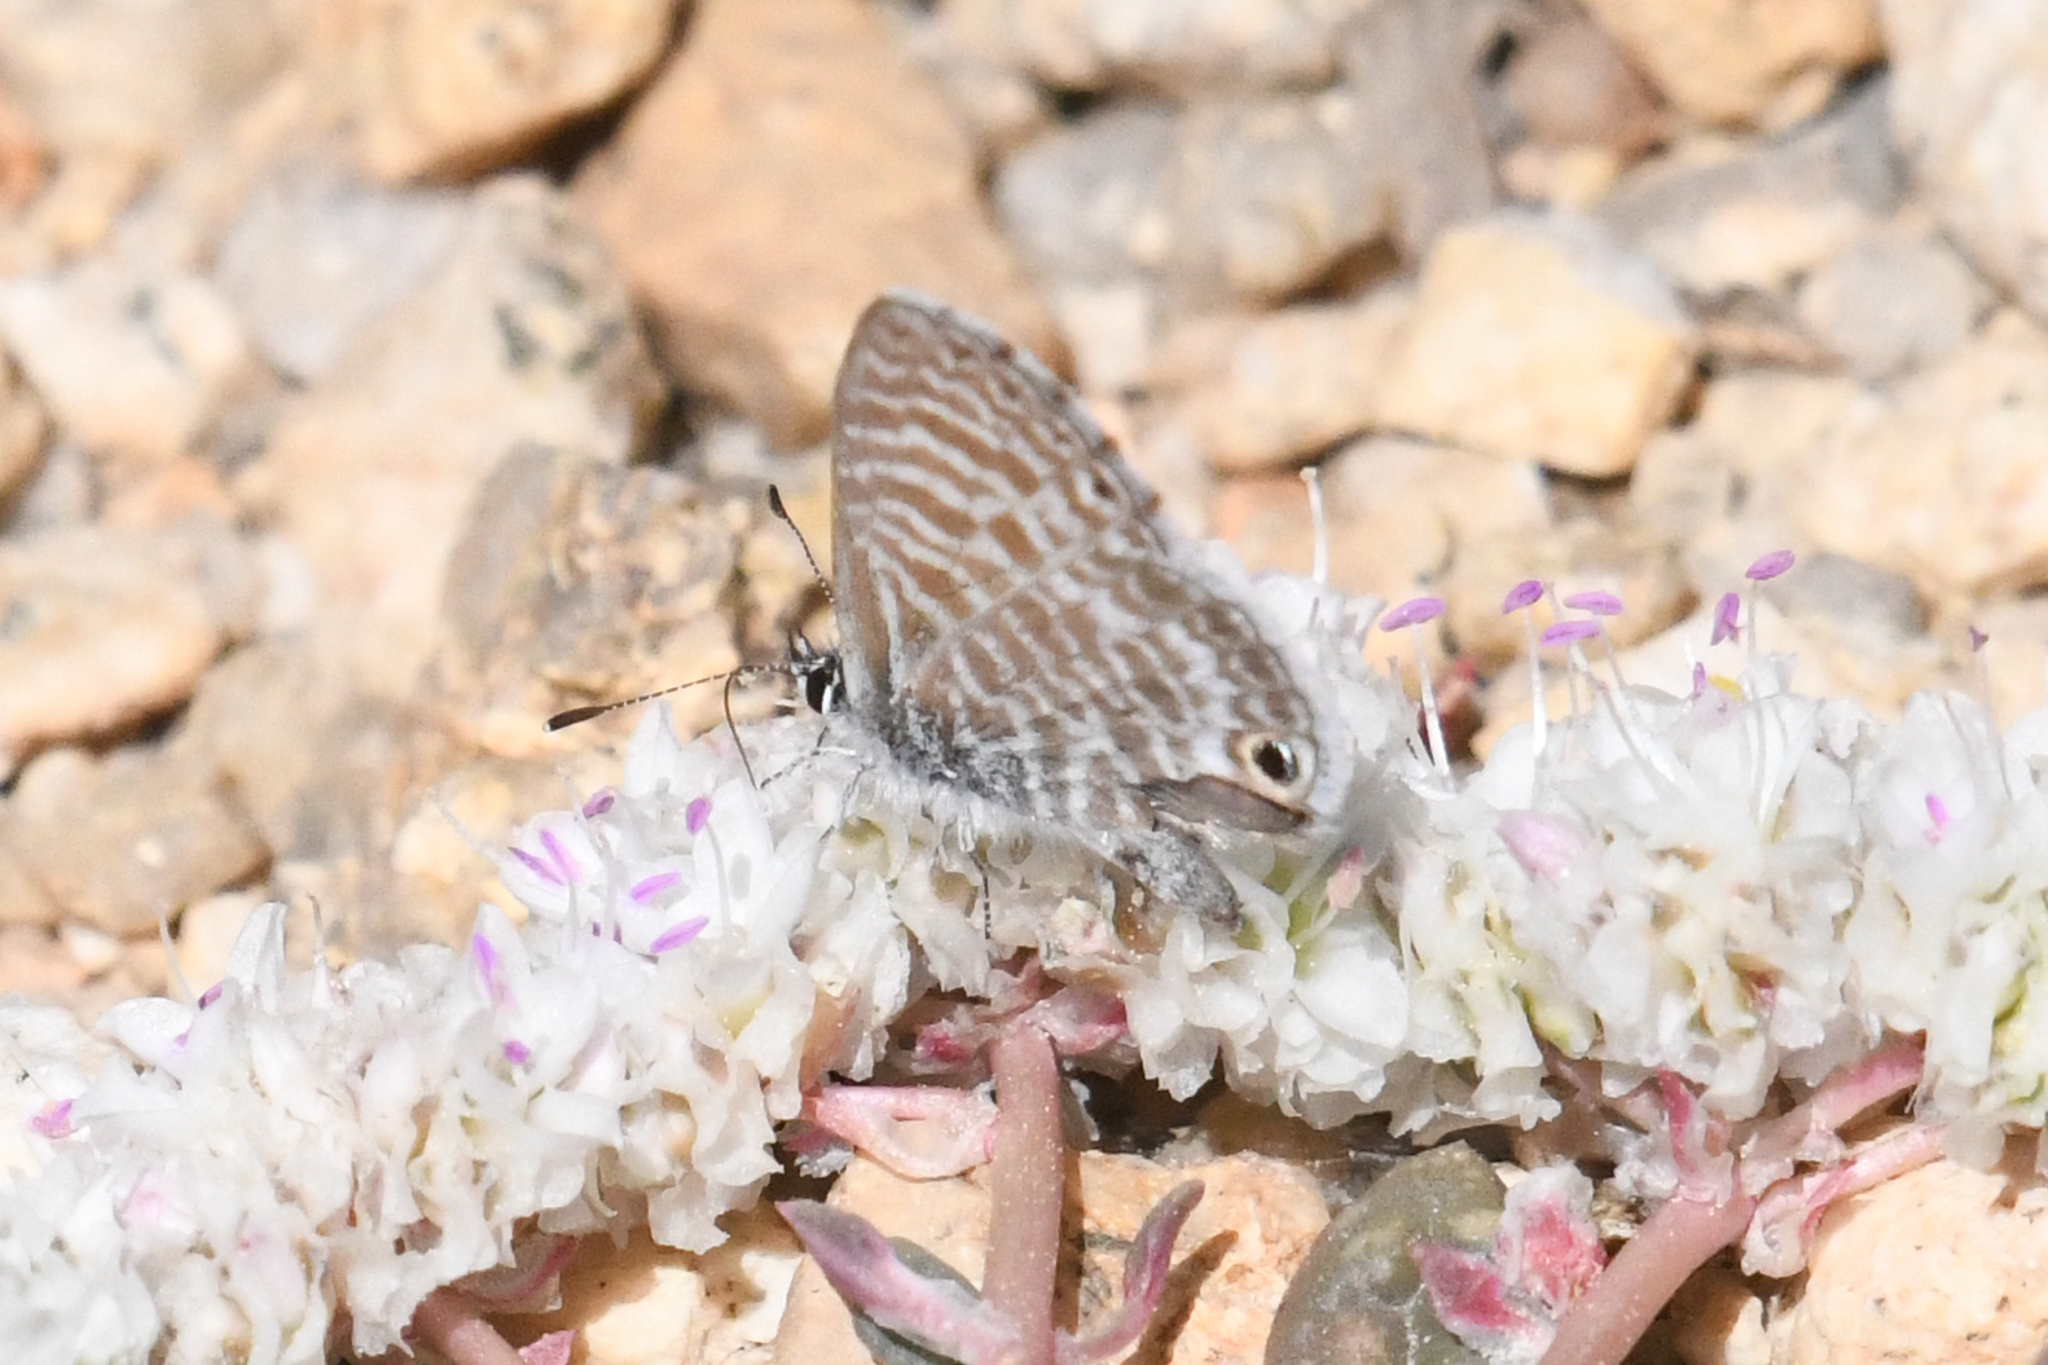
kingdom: Animalia
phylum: Arthropoda
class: Insecta
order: Lepidoptera
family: Lycaenidae
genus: Leptotes
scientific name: Leptotes marina
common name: Marine blue
